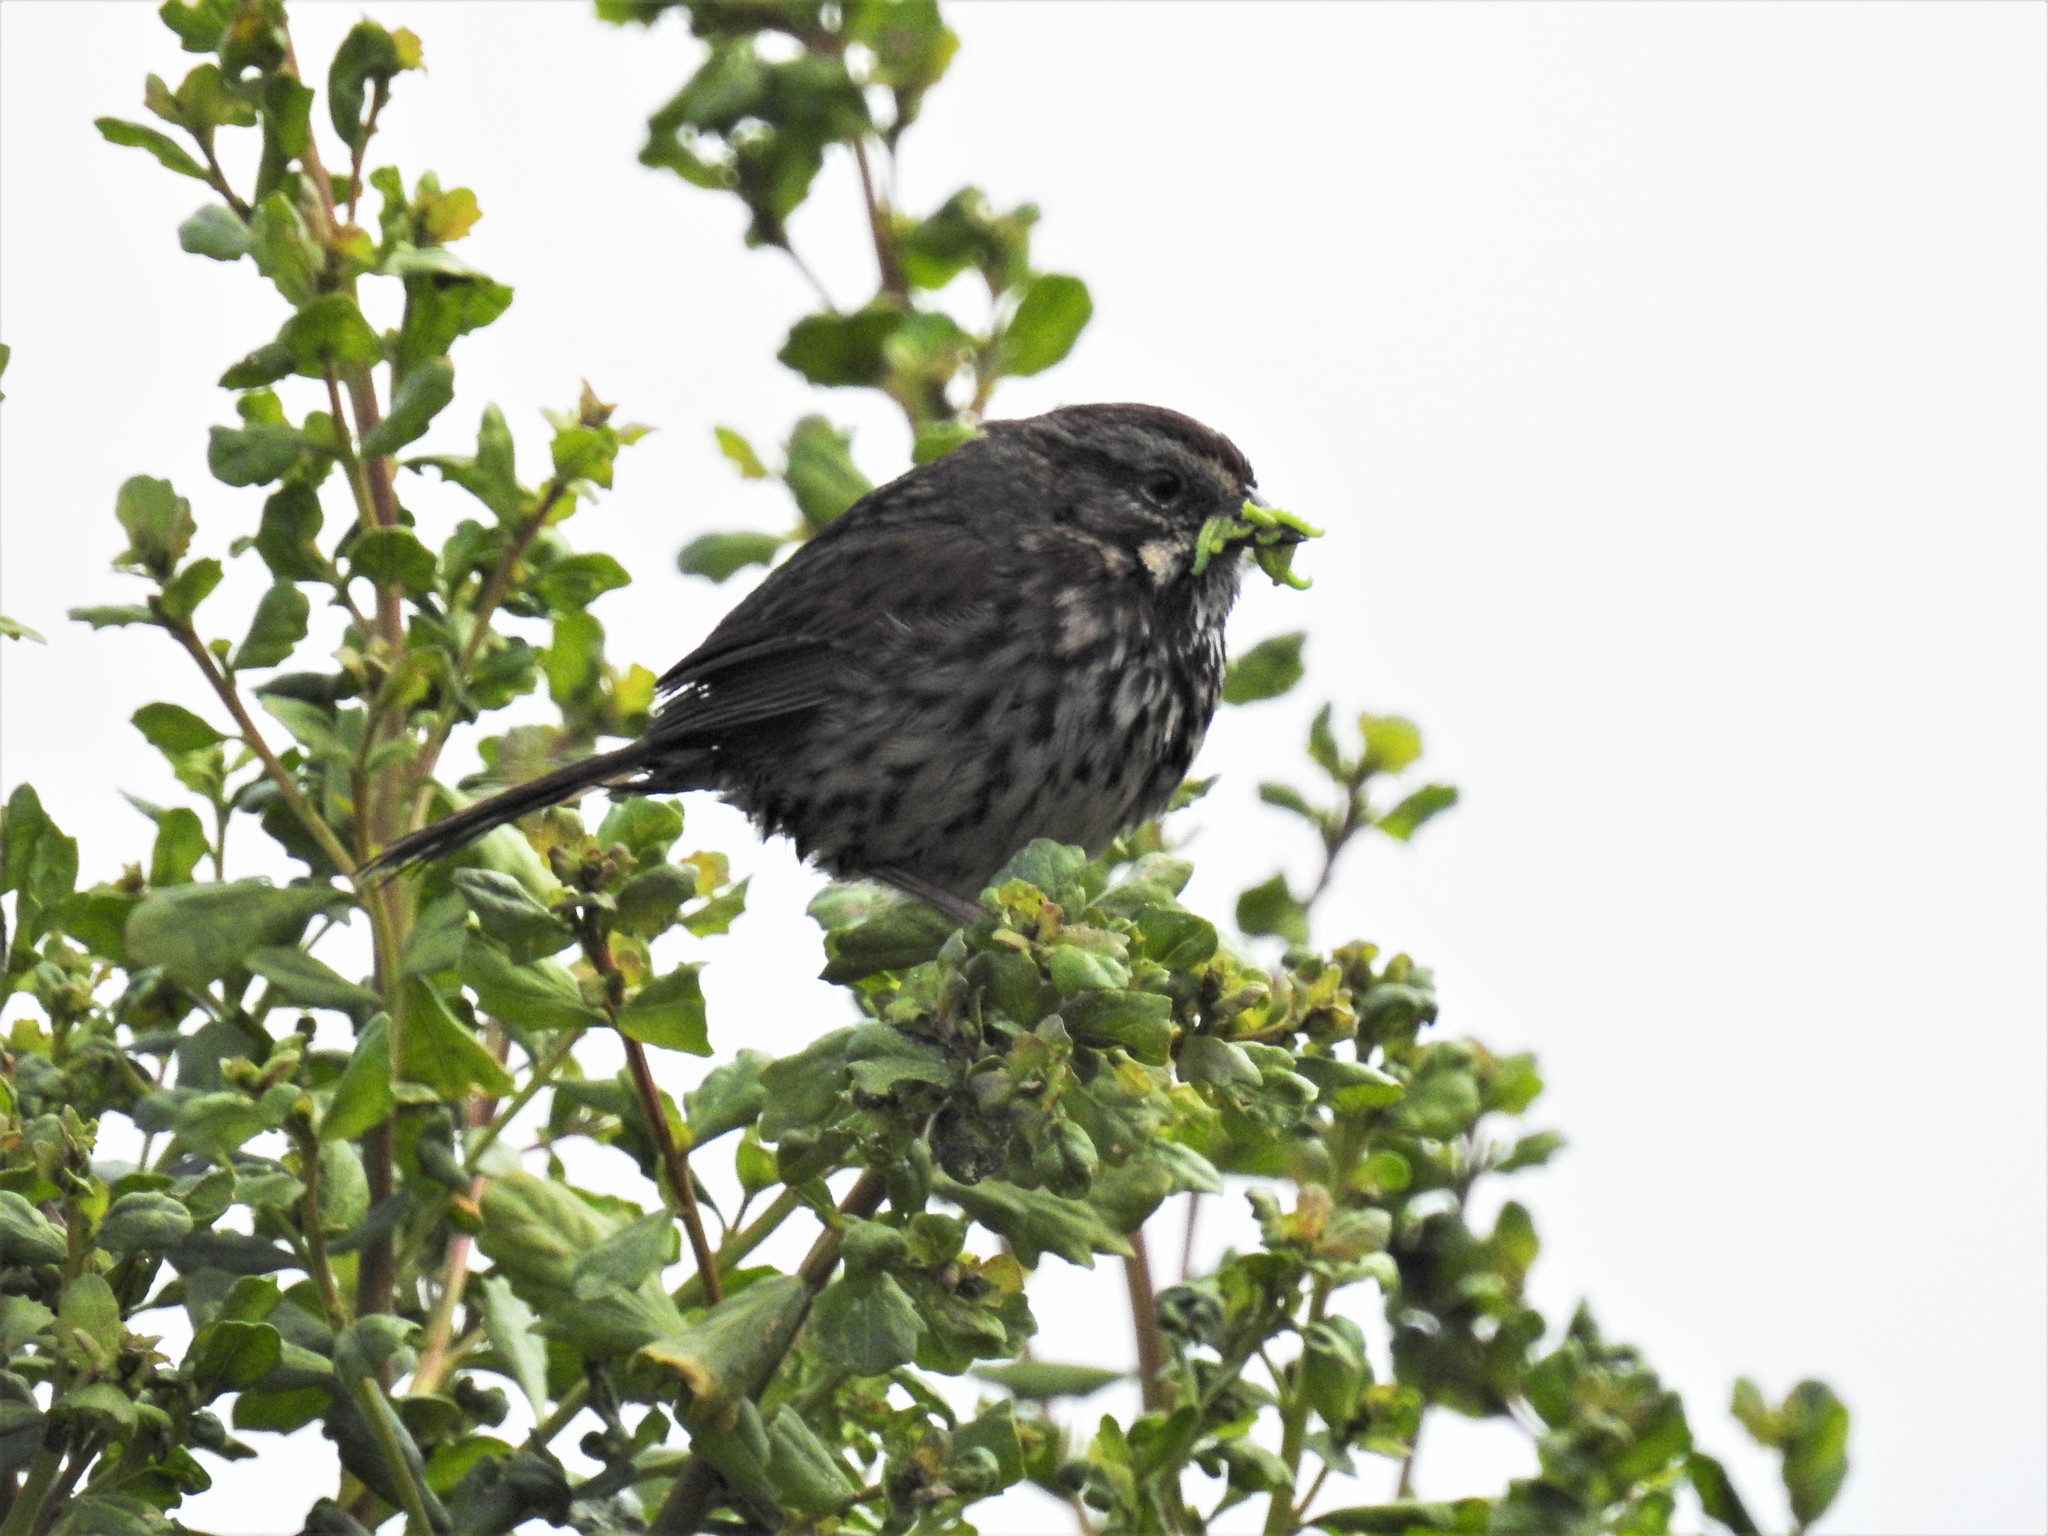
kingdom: Animalia
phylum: Chordata
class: Aves
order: Passeriformes
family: Passerellidae
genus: Melospiza
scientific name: Melospiza melodia
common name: Song sparrow
